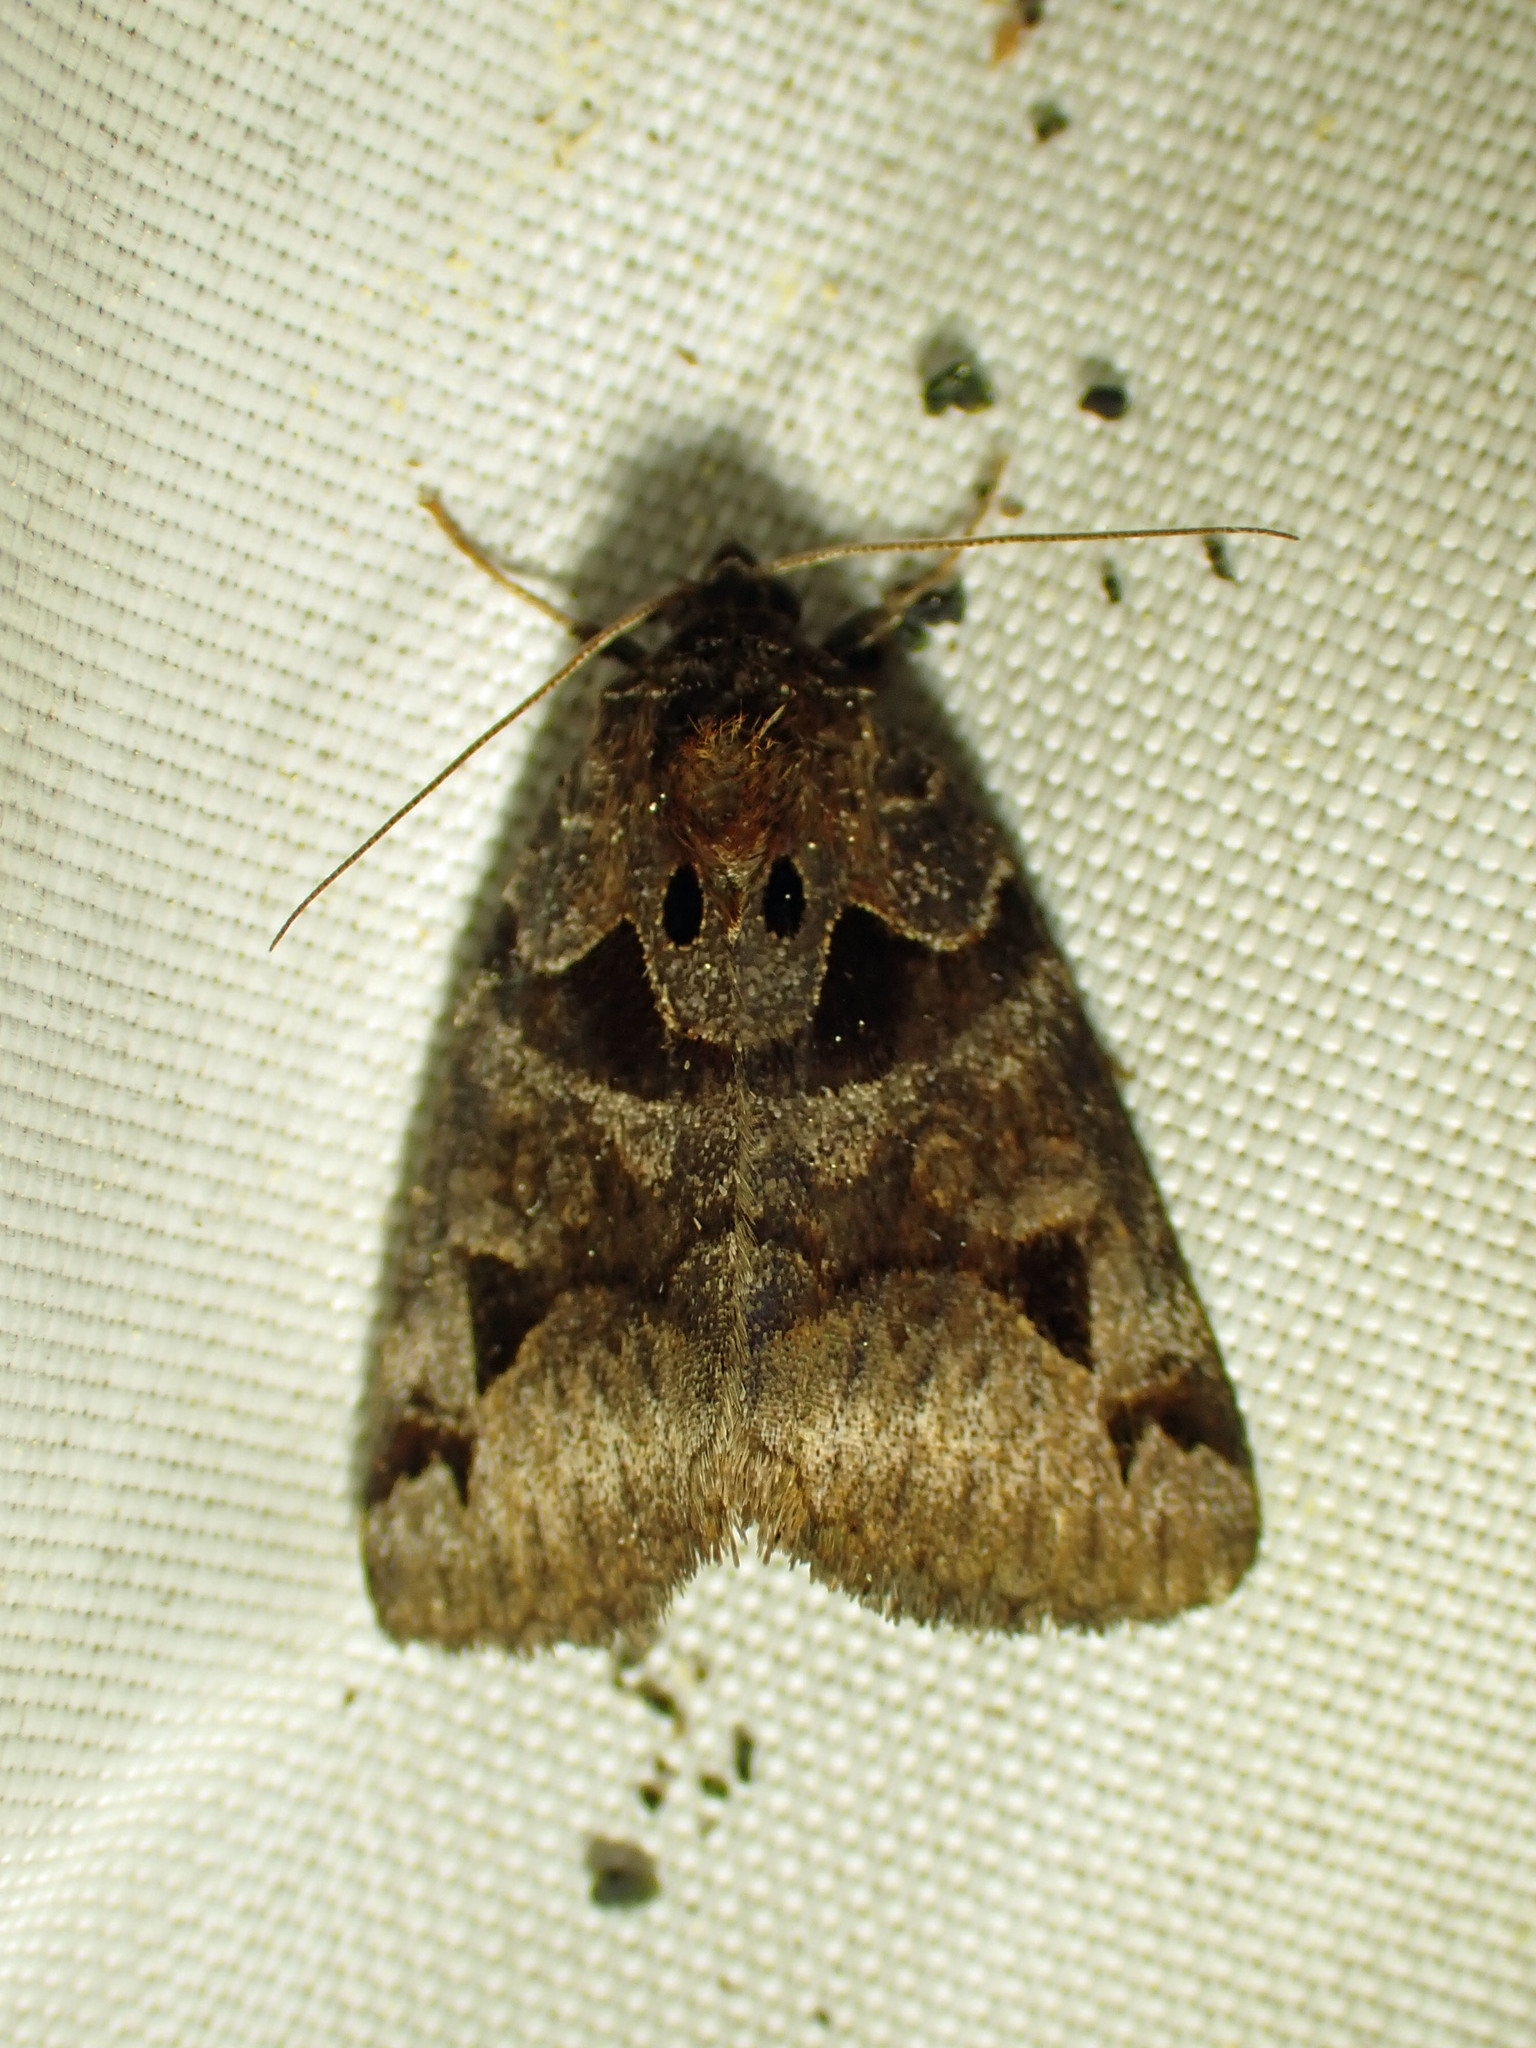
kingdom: Animalia
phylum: Arthropoda
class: Insecta
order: Lepidoptera
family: Erebidae
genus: Euclidia
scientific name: Euclidia cuspidea
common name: Toothed somberwing
